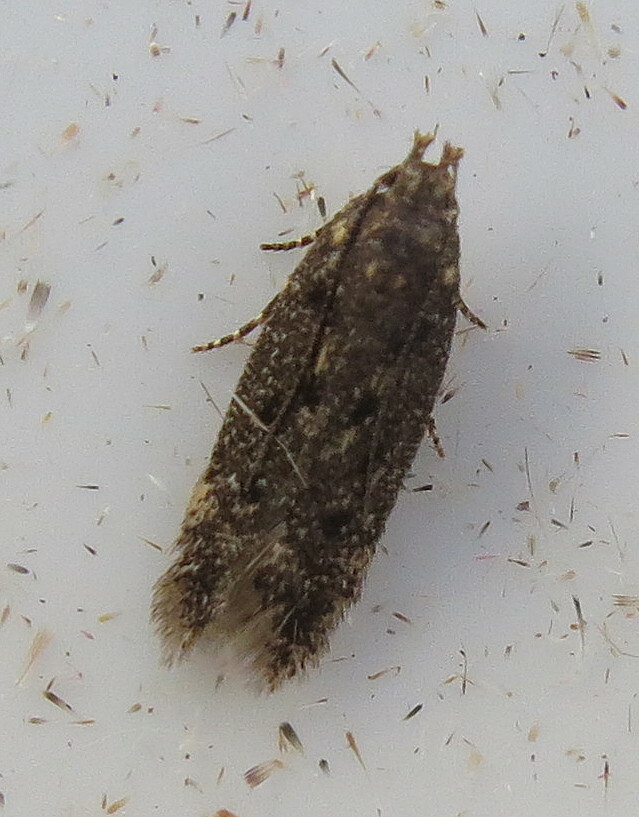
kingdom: Animalia
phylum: Arthropoda
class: Insecta
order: Lepidoptera
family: Gelechiidae
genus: Bryotropha
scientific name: Bryotropha affinis
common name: Dark groundling
